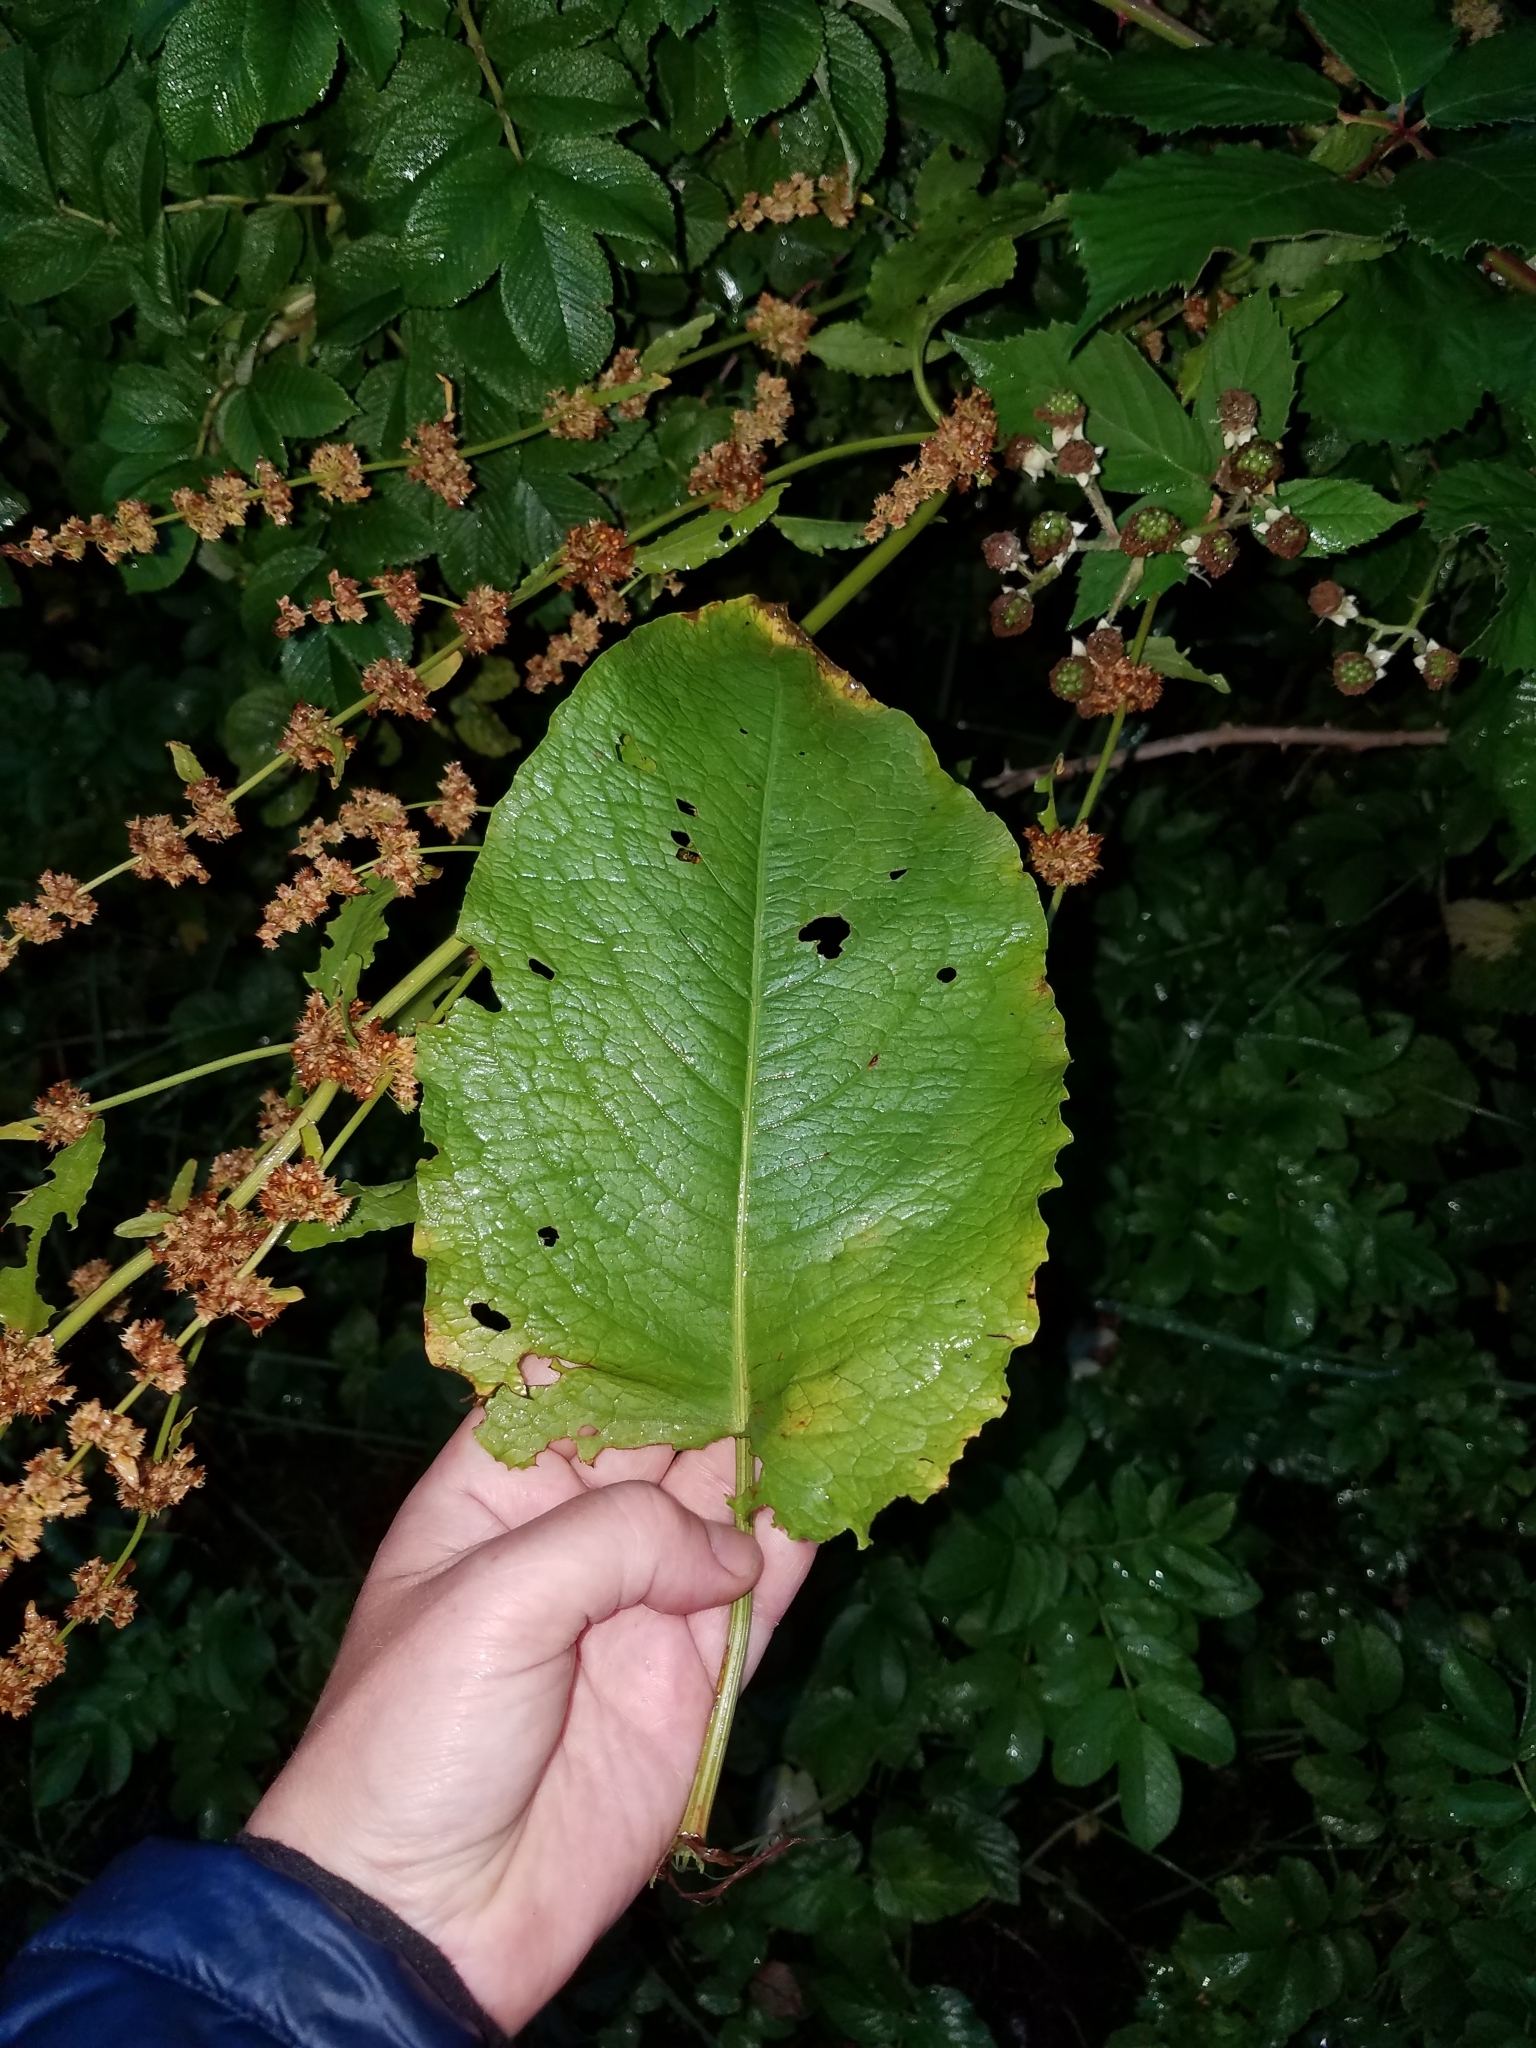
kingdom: Plantae
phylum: Tracheophyta
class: Magnoliopsida
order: Caryophyllales
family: Polygonaceae
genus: Rumex
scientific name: Rumex obtusifolius
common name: Bitter dock
